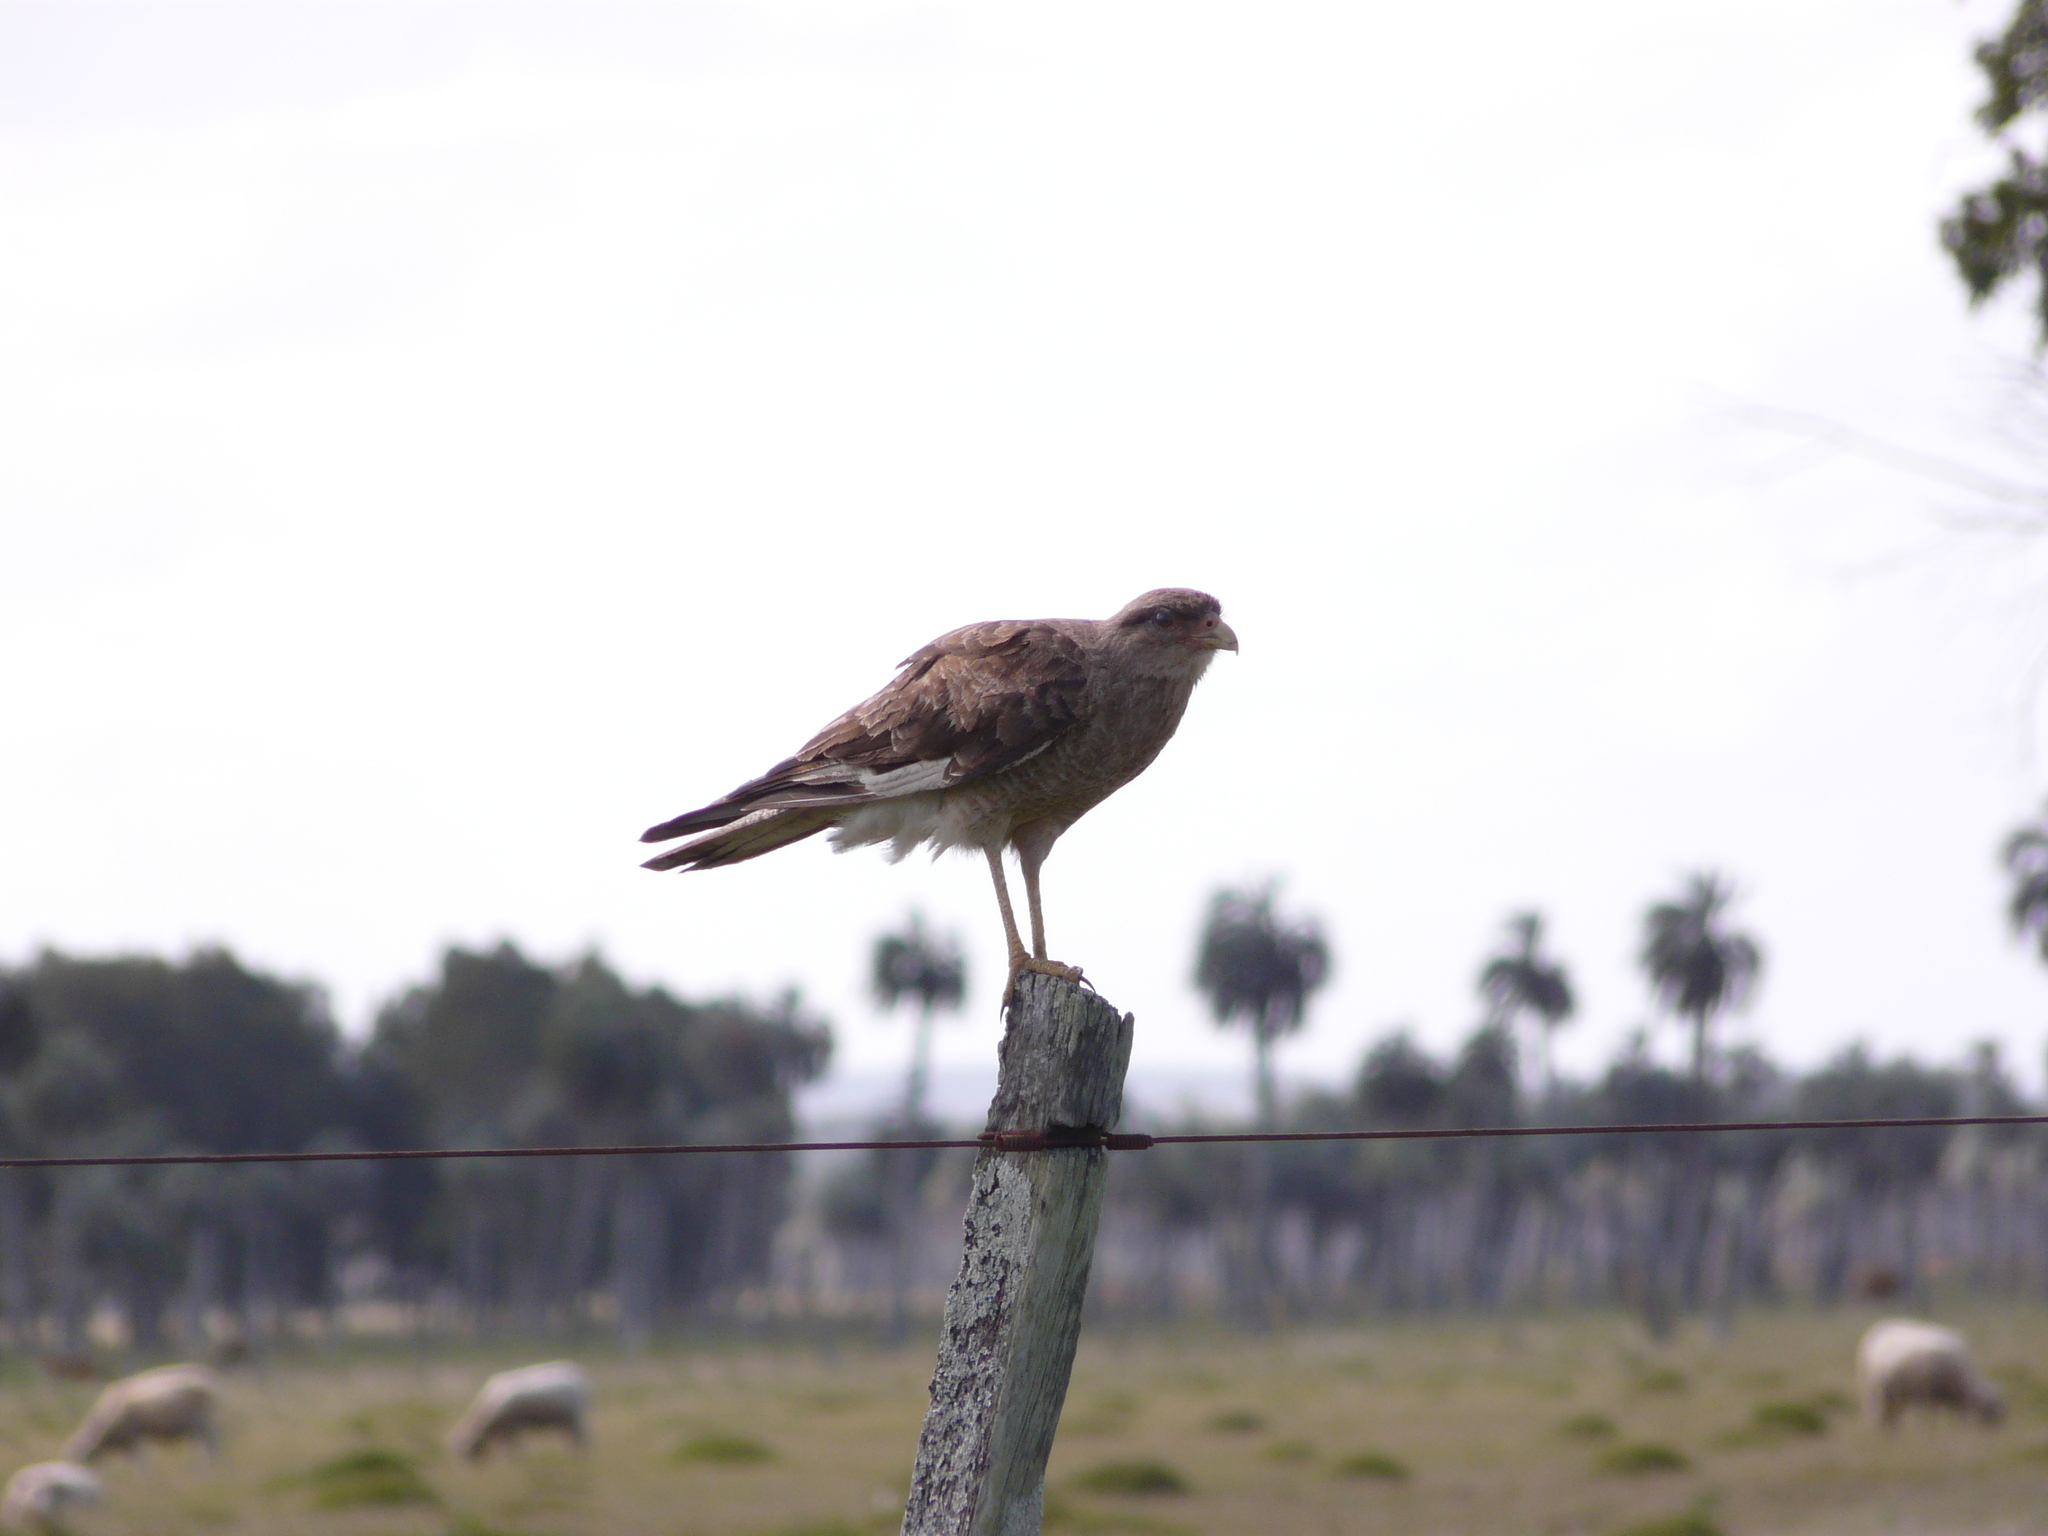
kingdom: Animalia
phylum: Chordata
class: Aves
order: Falconiformes
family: Falconidae
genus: Daptrius
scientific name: Daptrius
